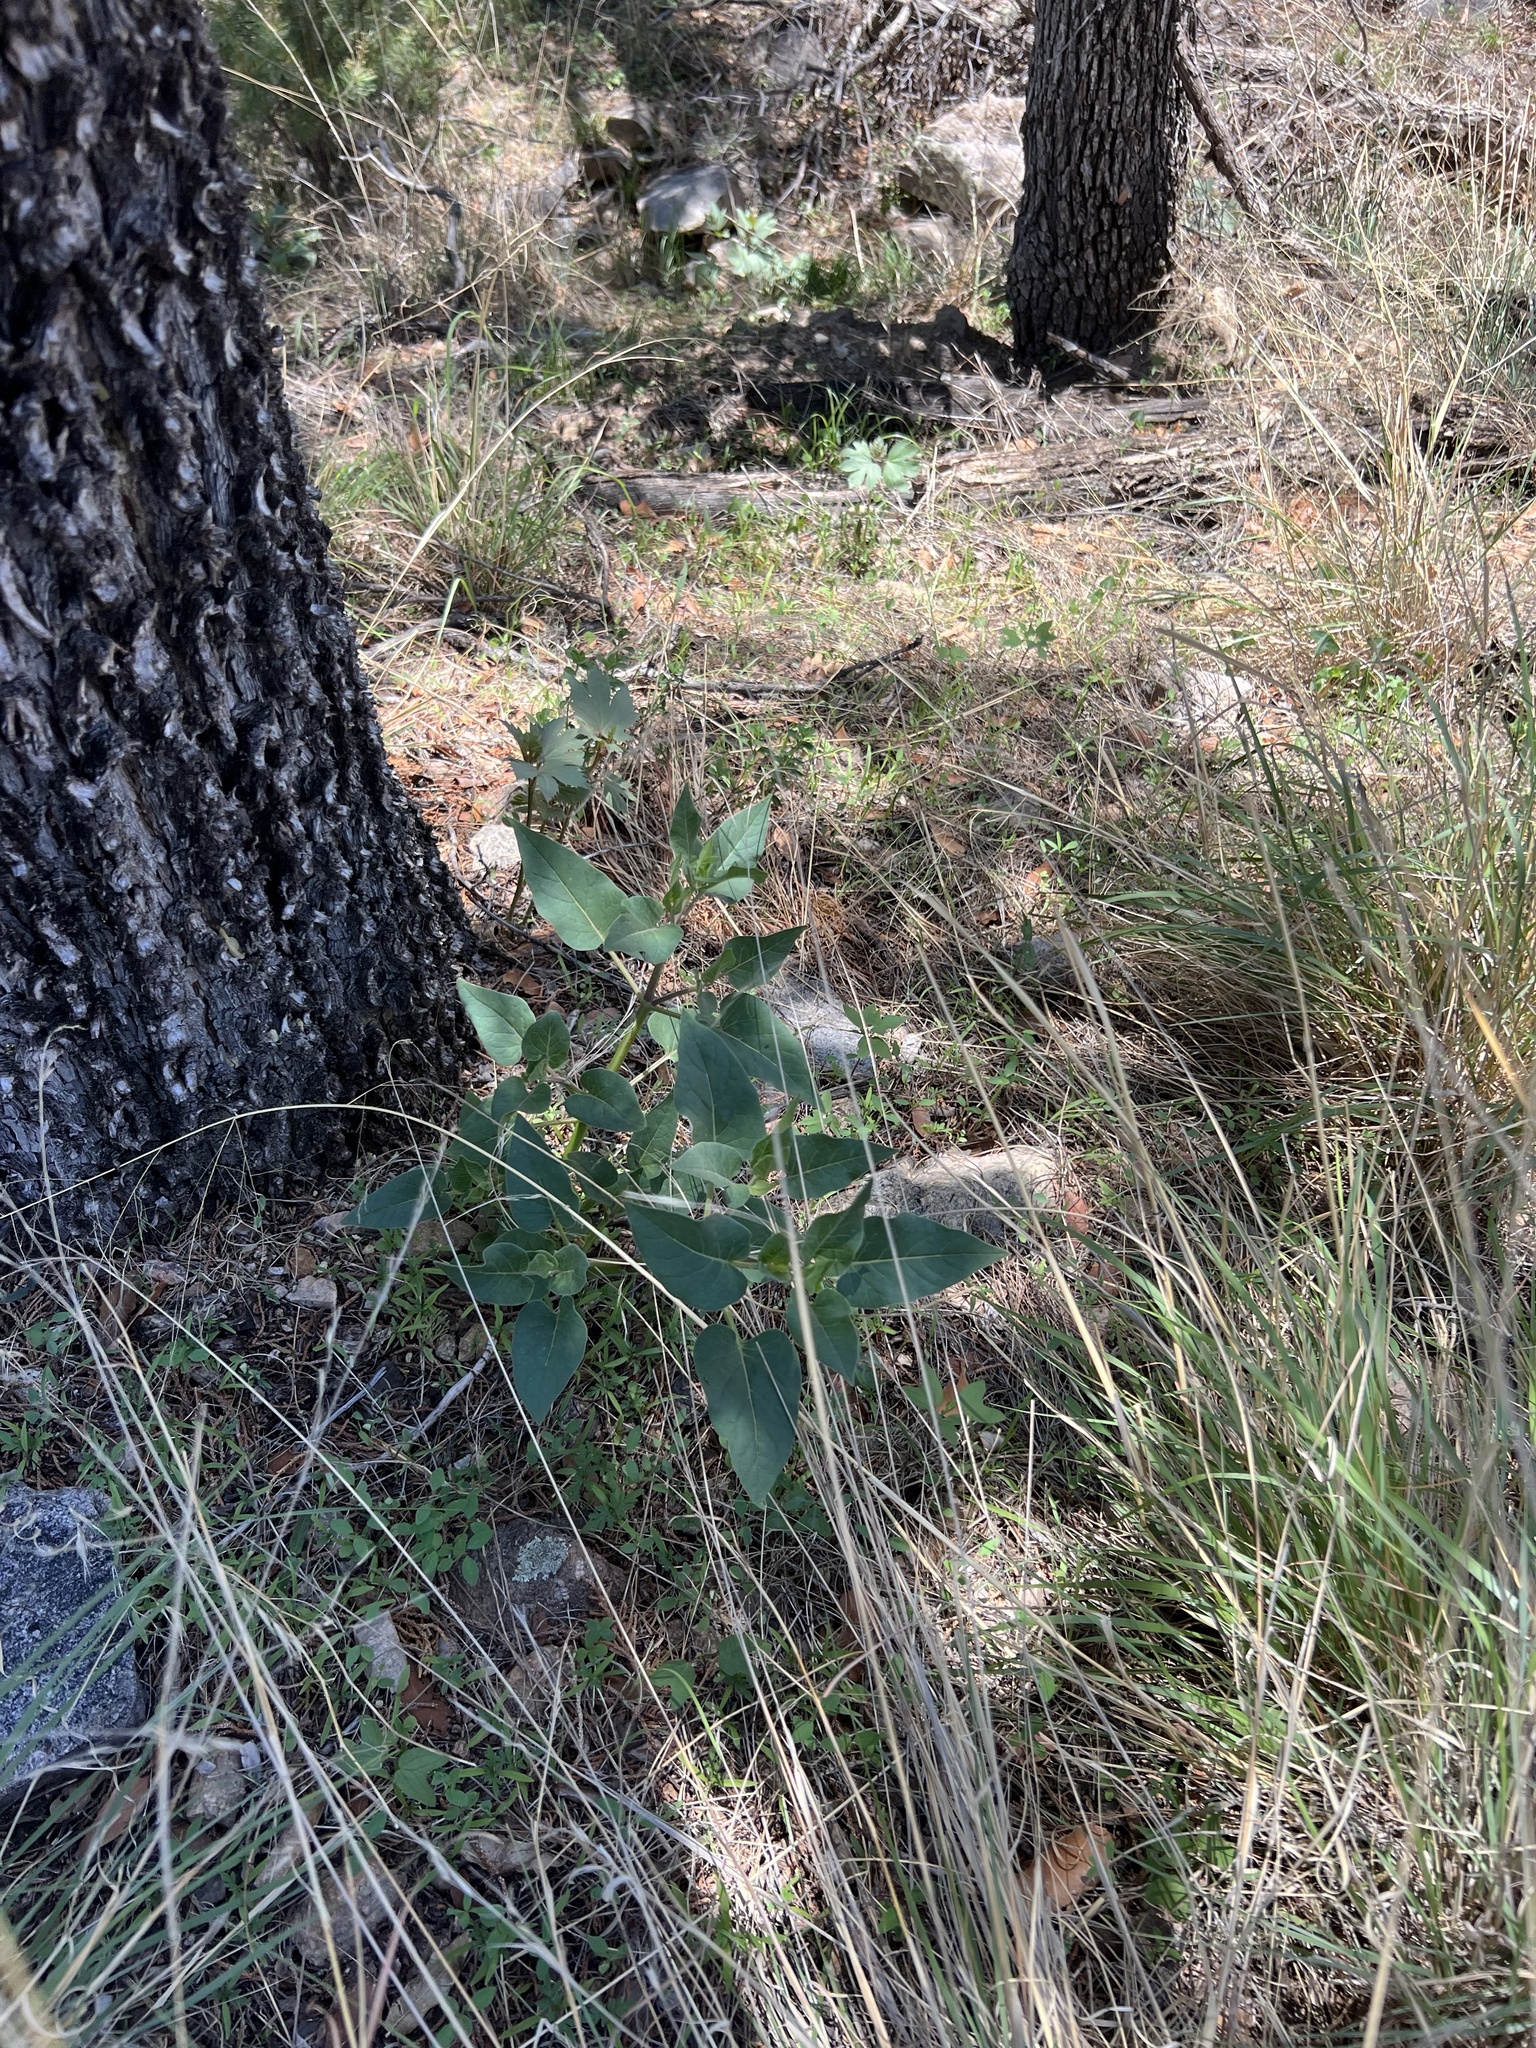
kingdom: Plantae
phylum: Tracheophyta
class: Magnoliopsida
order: Caryophyllales
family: Nyctaginaceae
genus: Mirabilis
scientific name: Mirabilis longiflora
